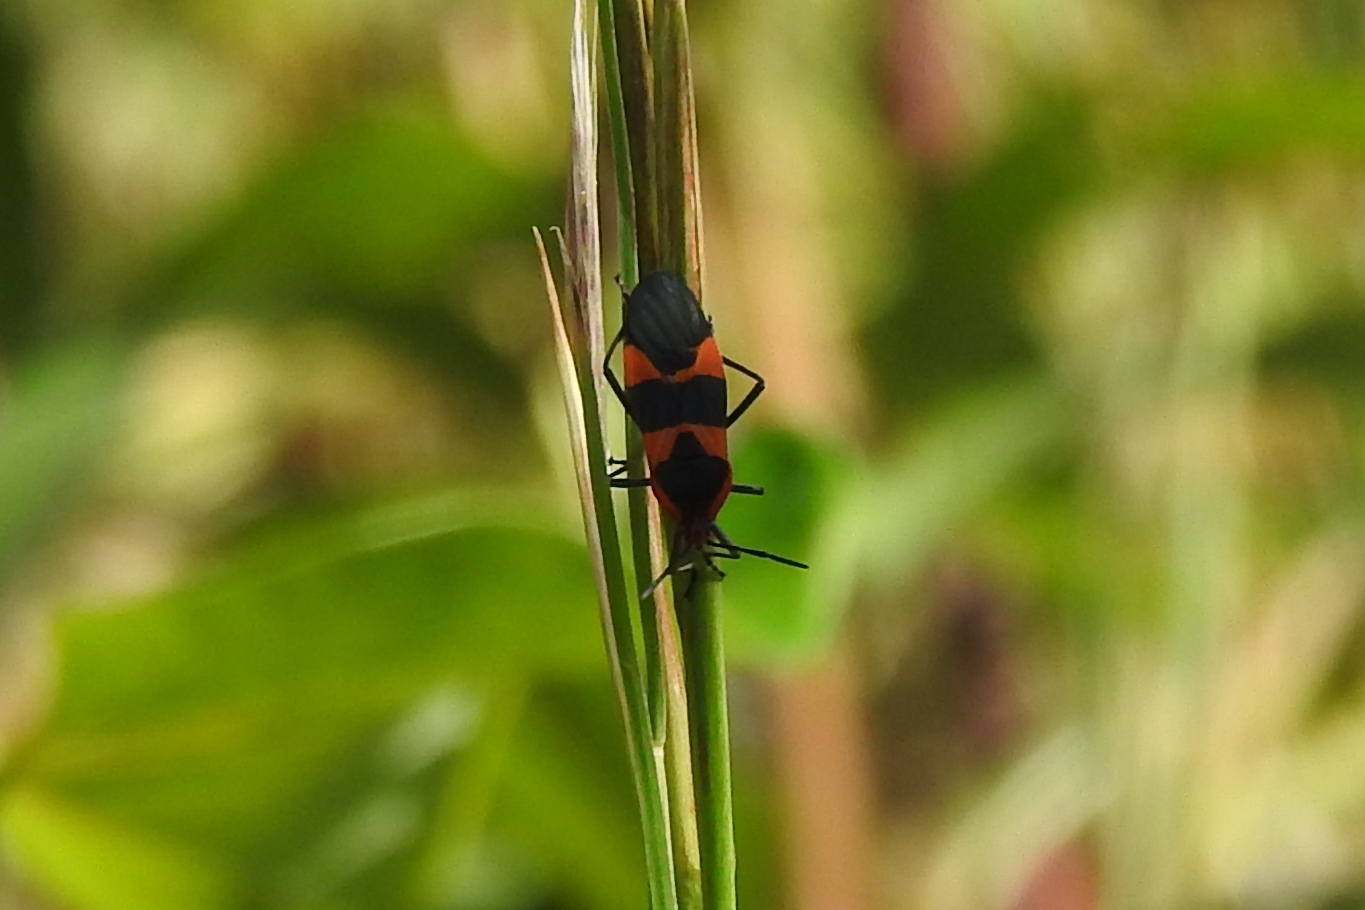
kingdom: Animalia
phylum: Arthropoda
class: Insecta
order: Hemiptera
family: Lygaeidae
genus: Oncopeltus
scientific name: Oncopeltus fasciatus
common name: Large milkweed bug
